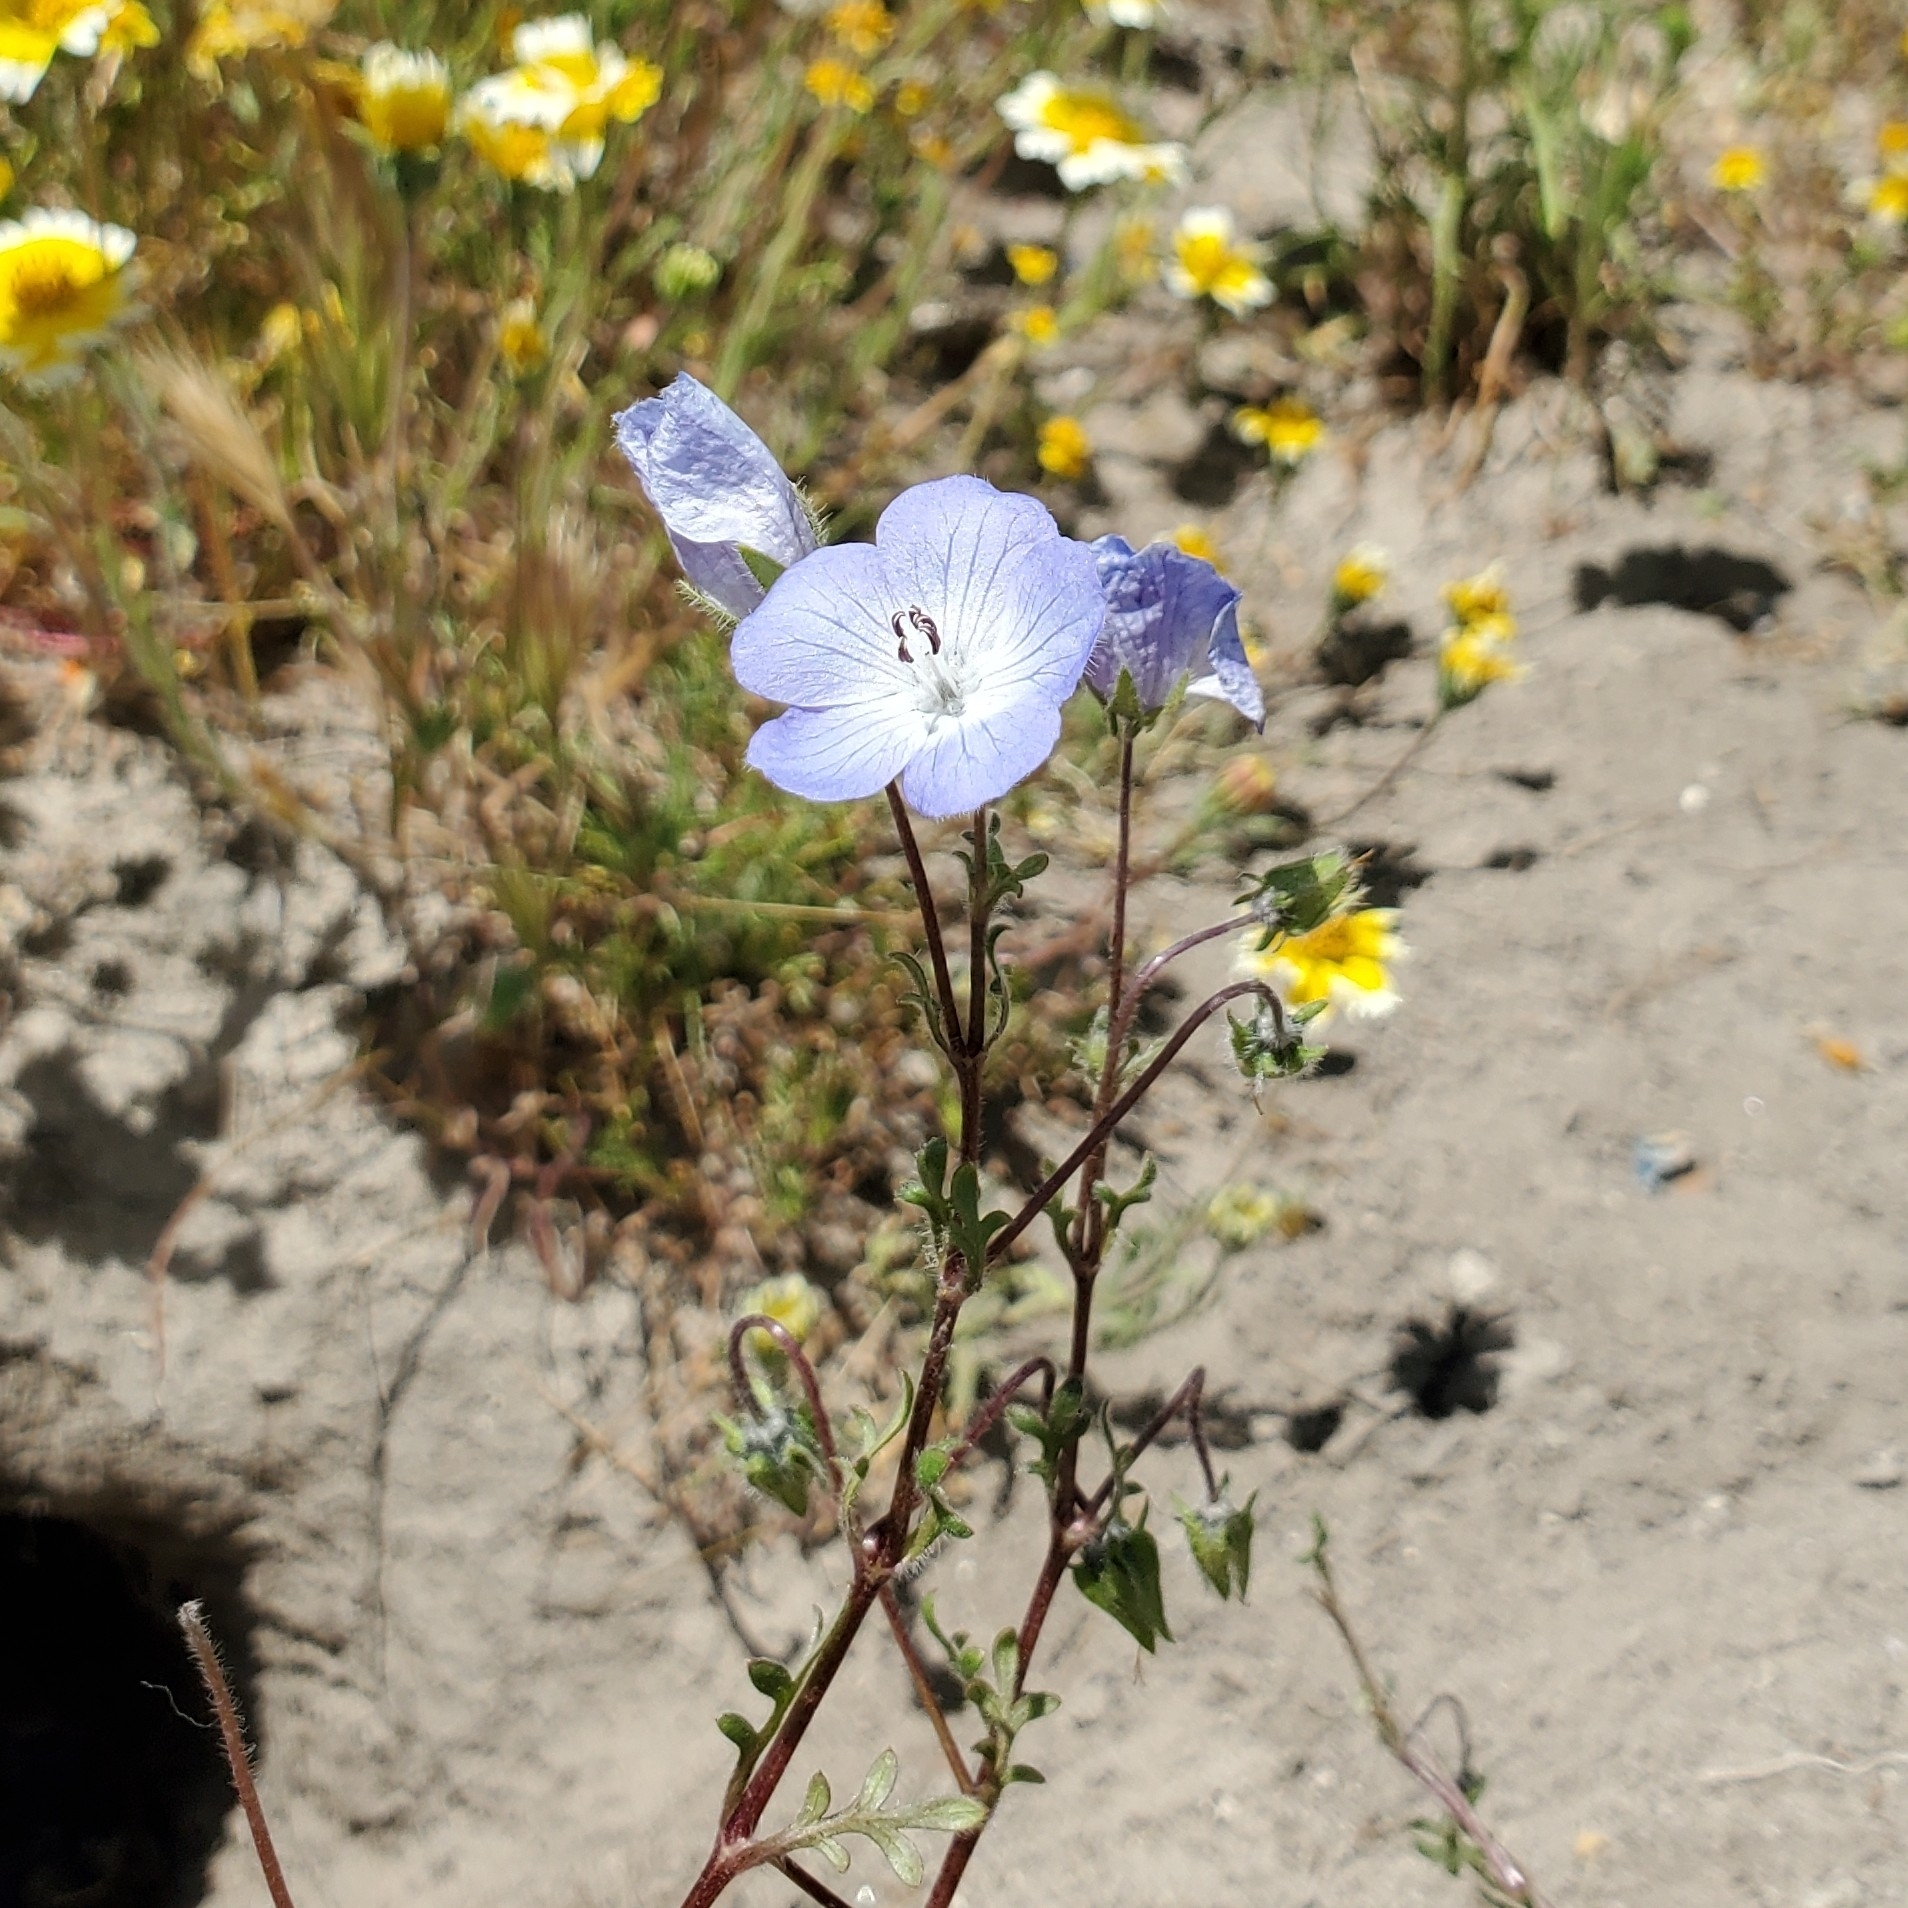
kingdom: Plantae
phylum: Tracheophyta
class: Magnoliopsida
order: Boraginales
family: Hydrophyllaceae
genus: Nemophila
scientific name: Nemophila menziesii
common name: Baby's-blue-eyes
